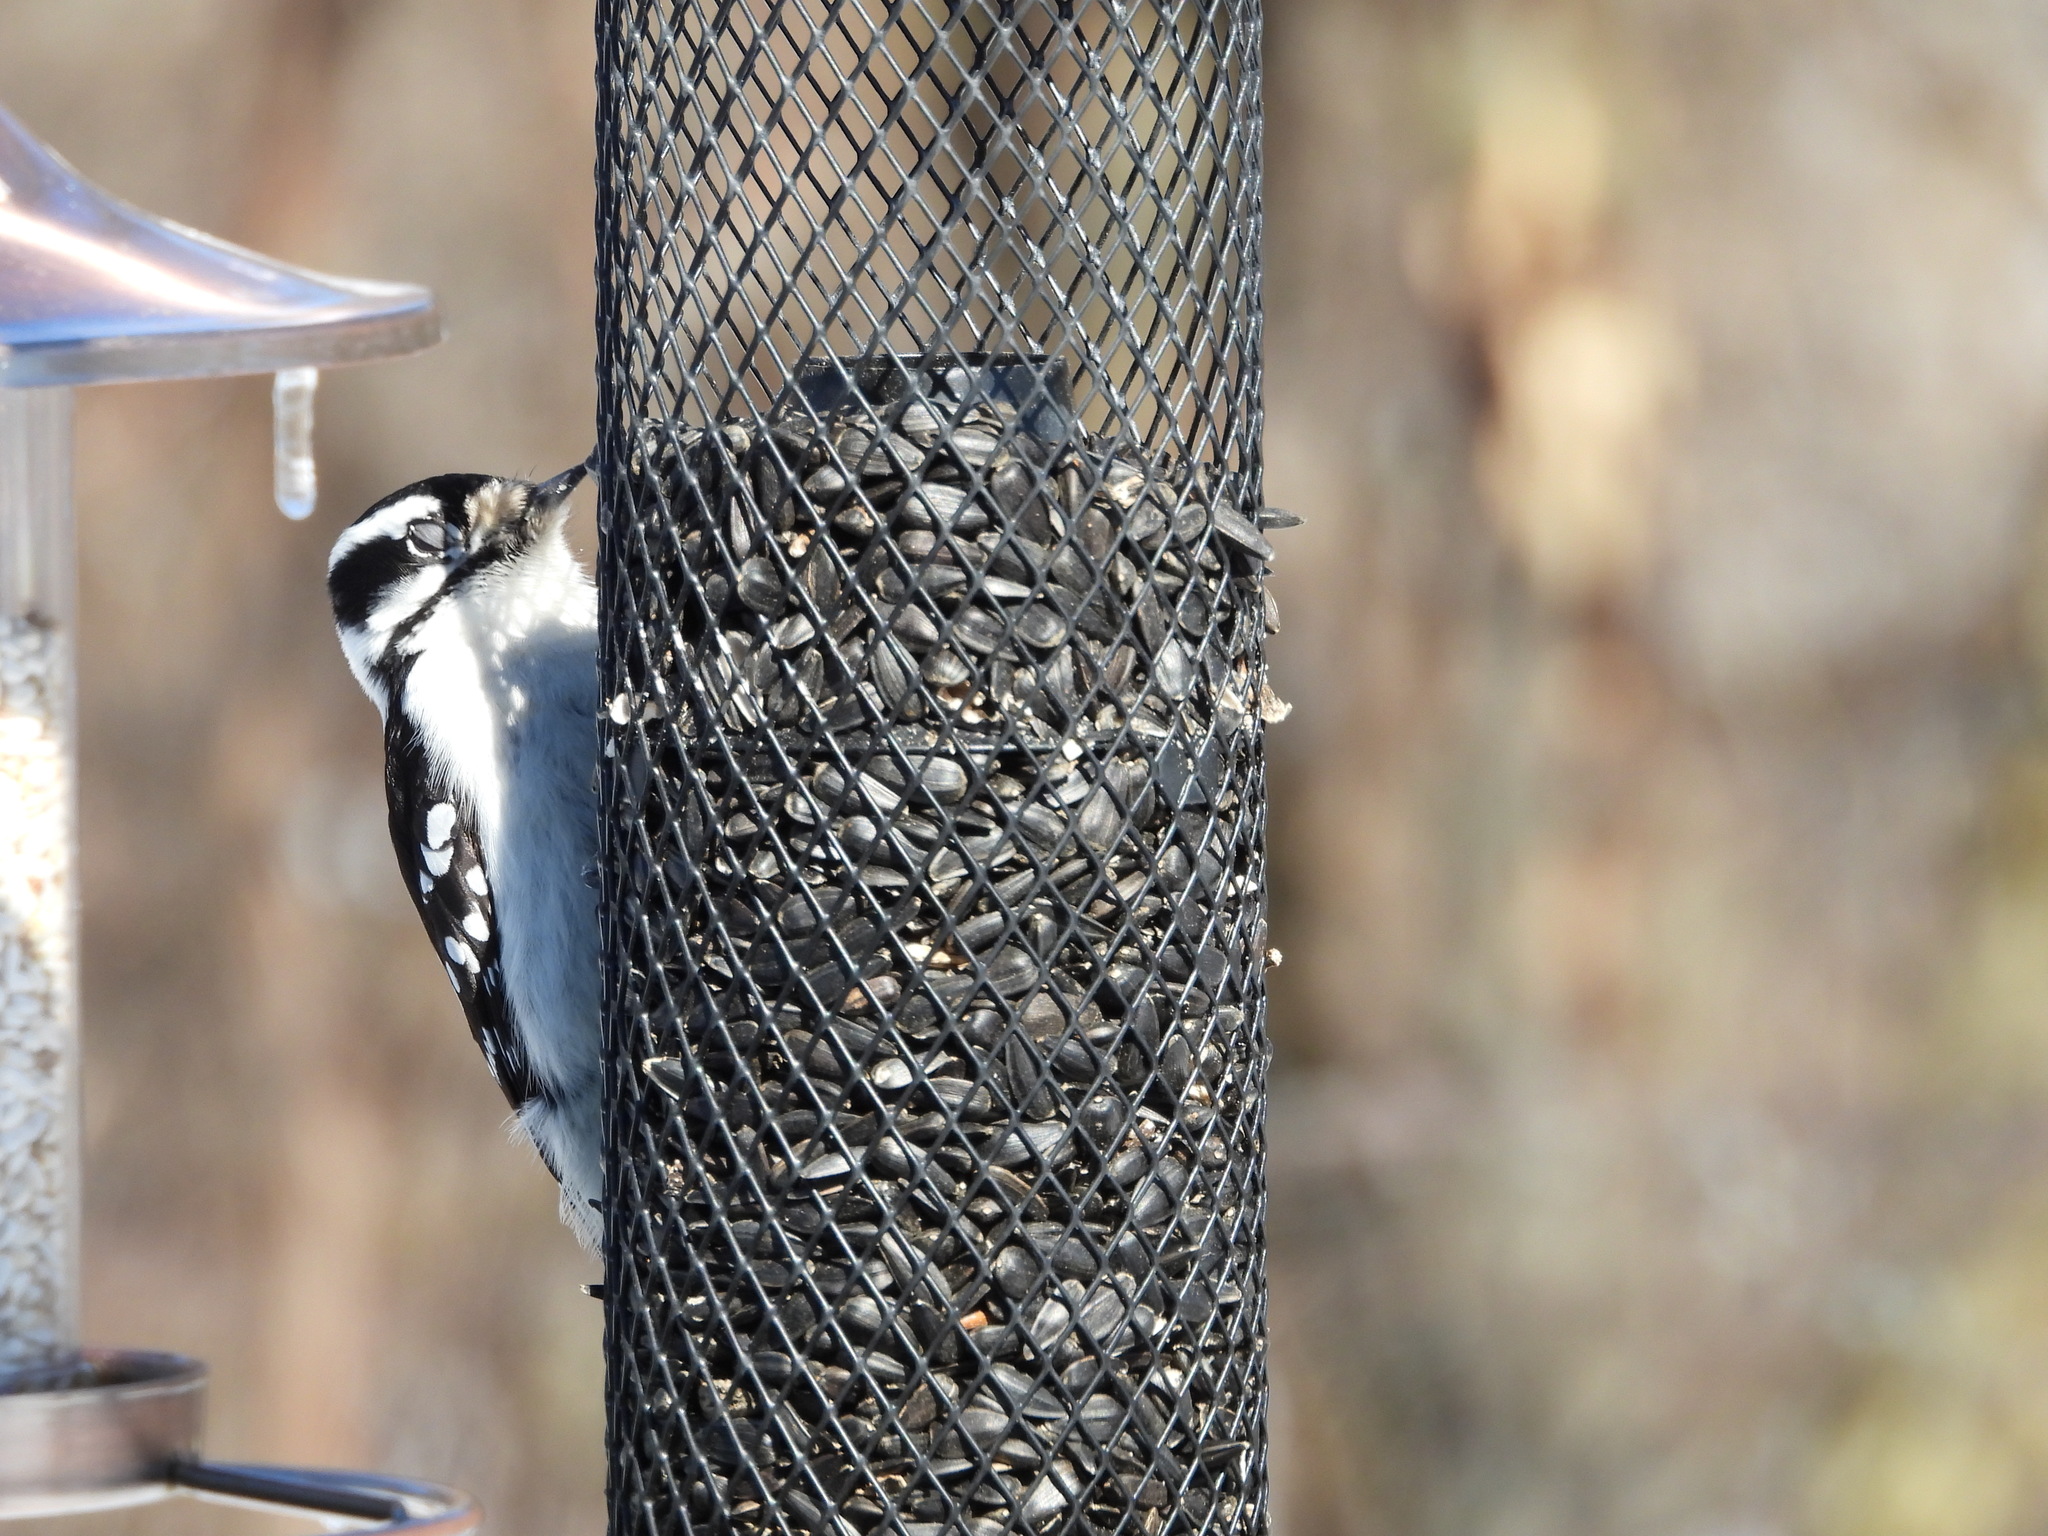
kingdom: Animalia
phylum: Chordata
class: Aves
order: Piciformes
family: Picidae
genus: Dryobates
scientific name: Dryobates pubescens
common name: Downy woodpecker
